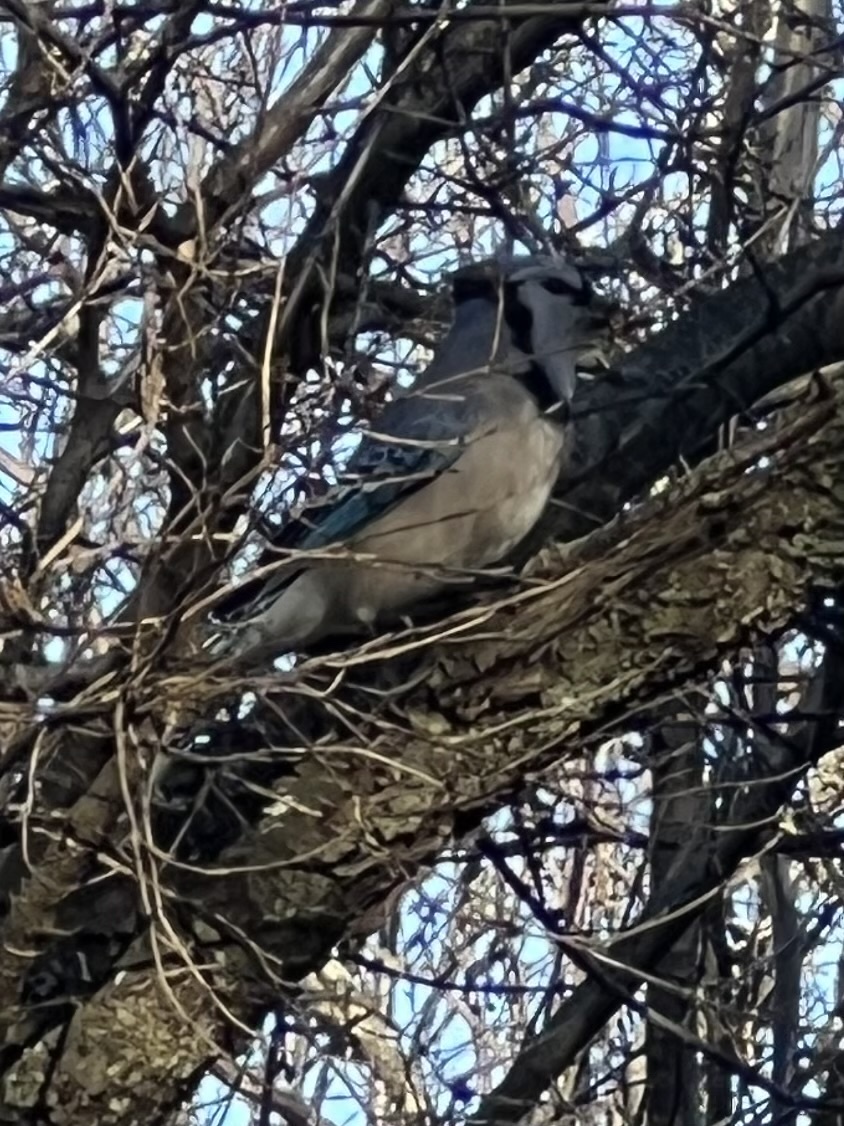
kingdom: Animalia
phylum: Chordata
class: Aves
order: Passeriformes
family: Corvidae
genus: Cyanocitta
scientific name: Cyanocitta cristata
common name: Blue jay
